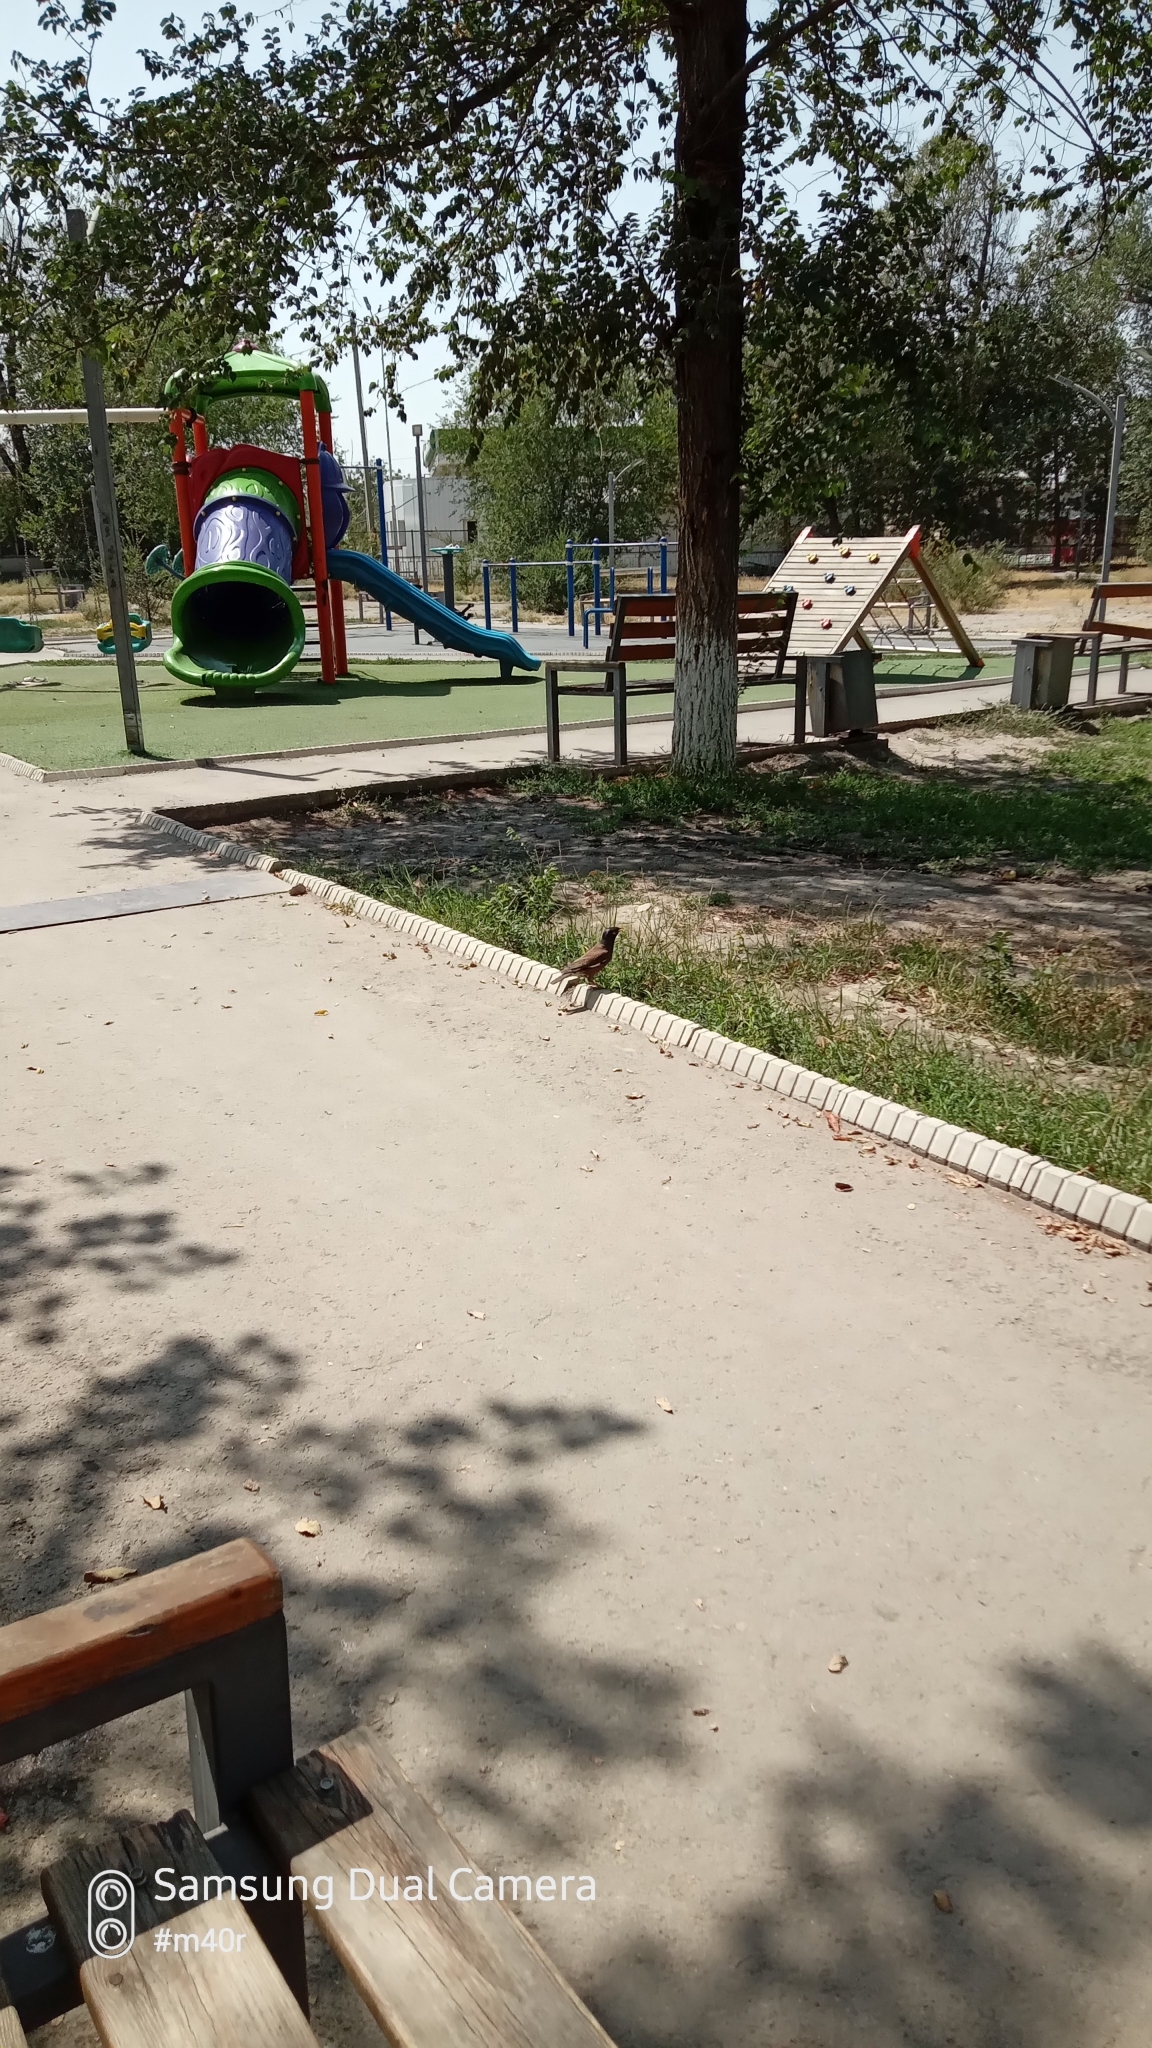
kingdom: Animalia
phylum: Chordata
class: Aves
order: Passeriformes
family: Sturnidae
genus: Acridotheres
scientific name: Acridotheres tristis
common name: Common myna
